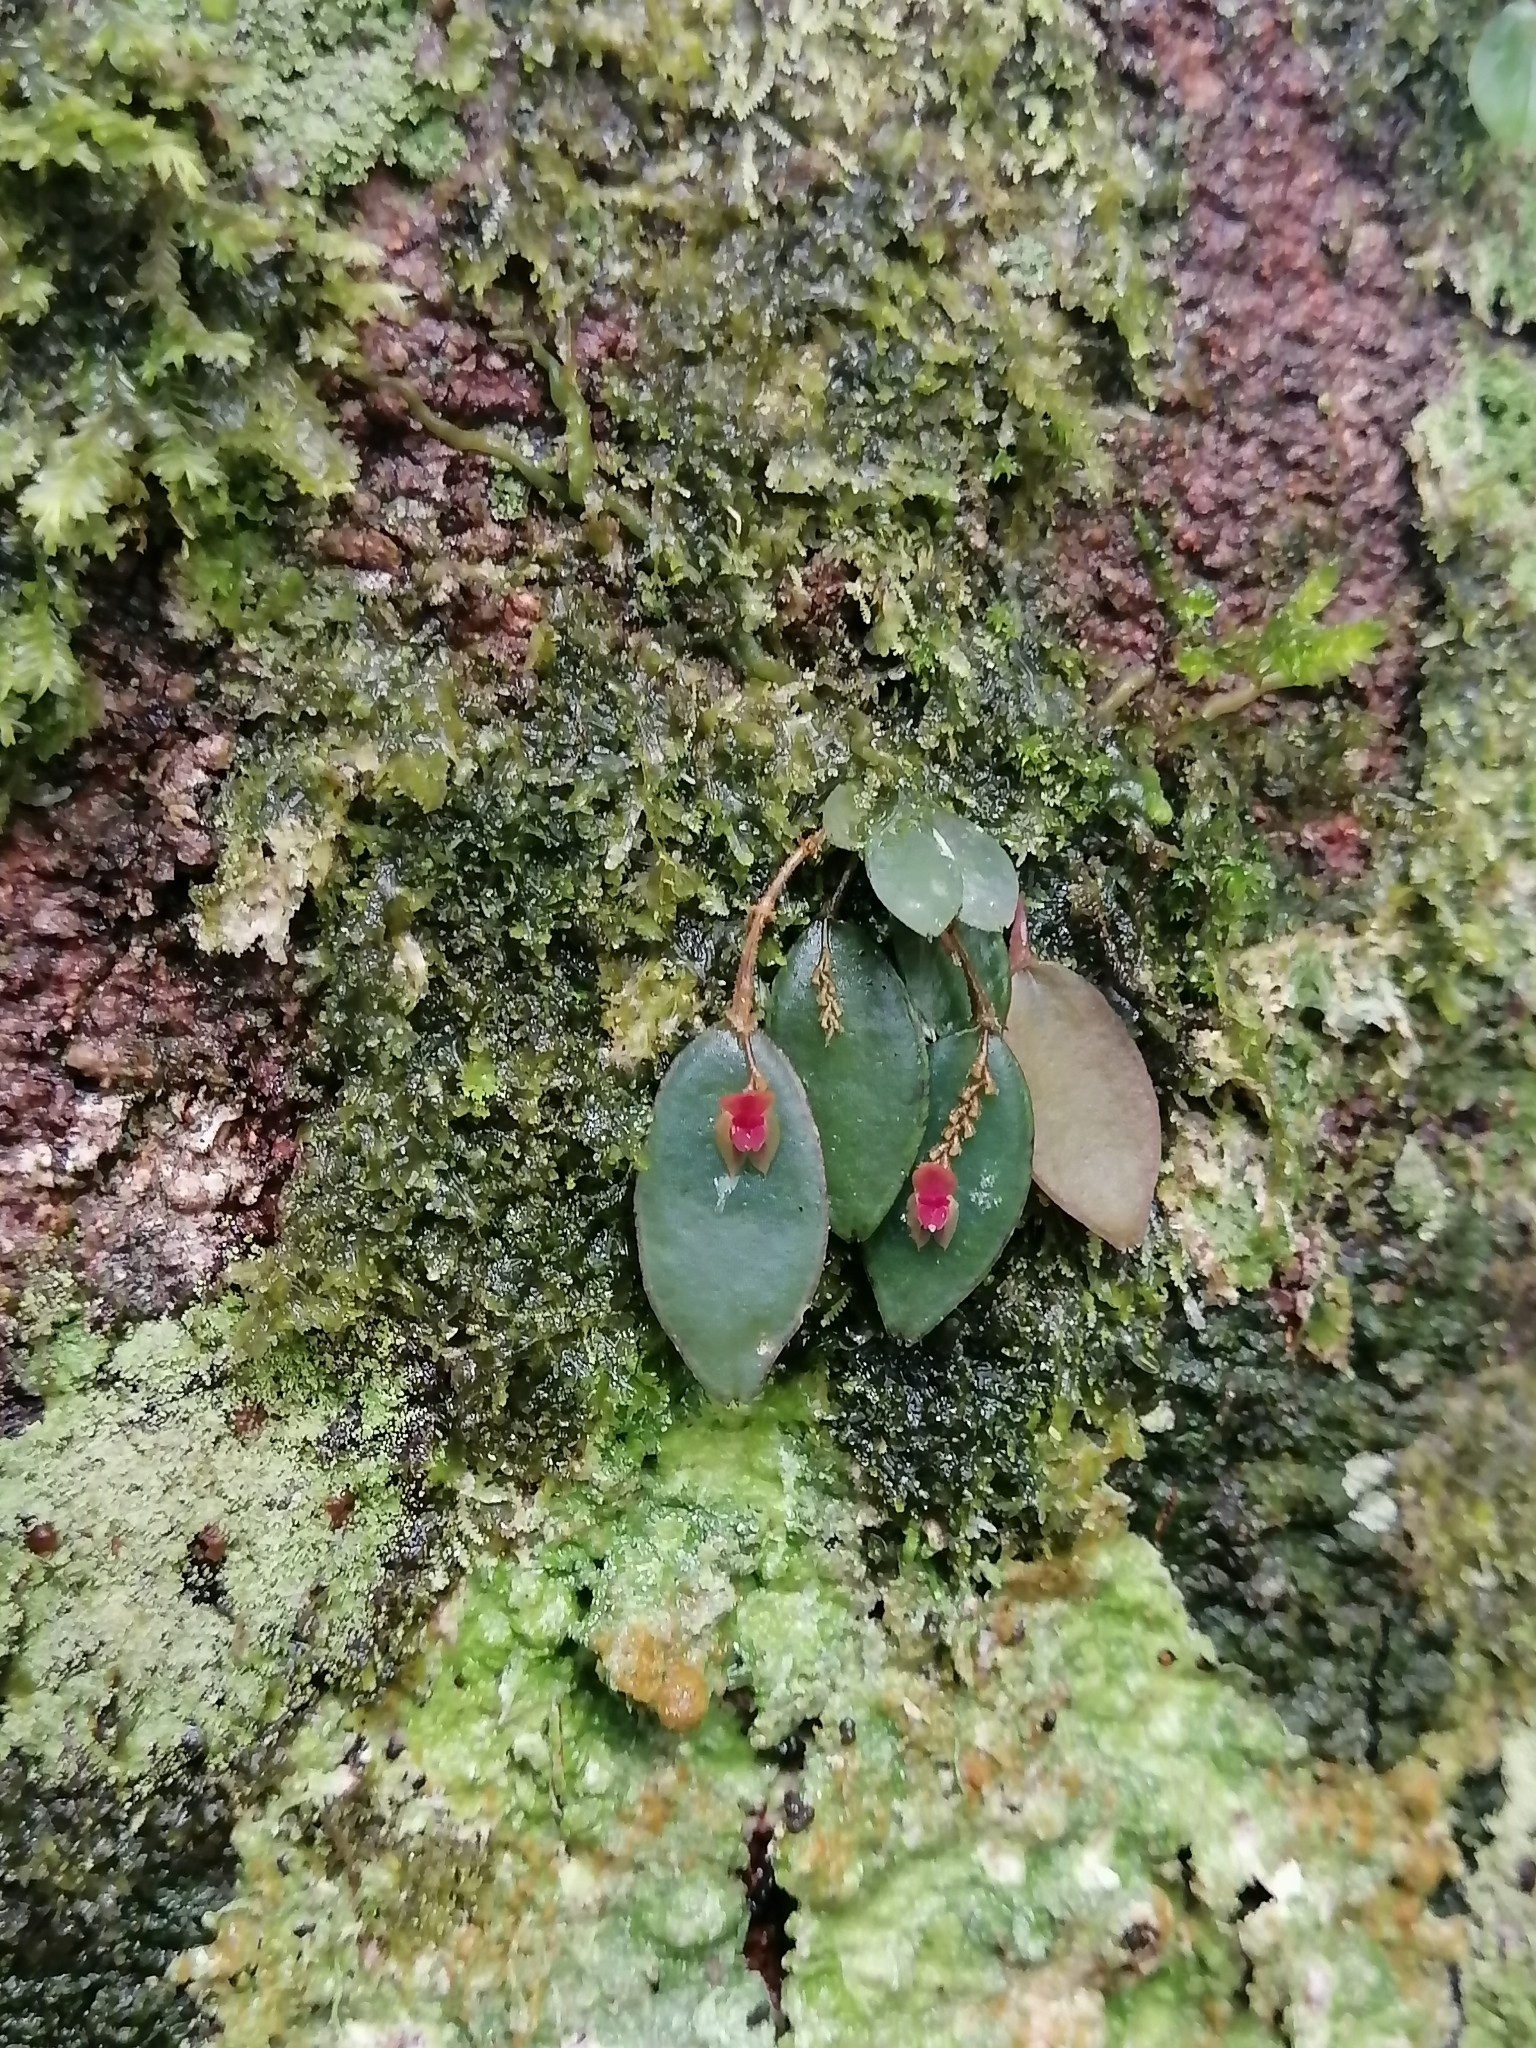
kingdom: Plantae
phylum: Tracheophyta
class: Liliopsida
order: Asparagales
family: Orchidaceae
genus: Lepanthes
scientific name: Lepanthes ancylopetala
